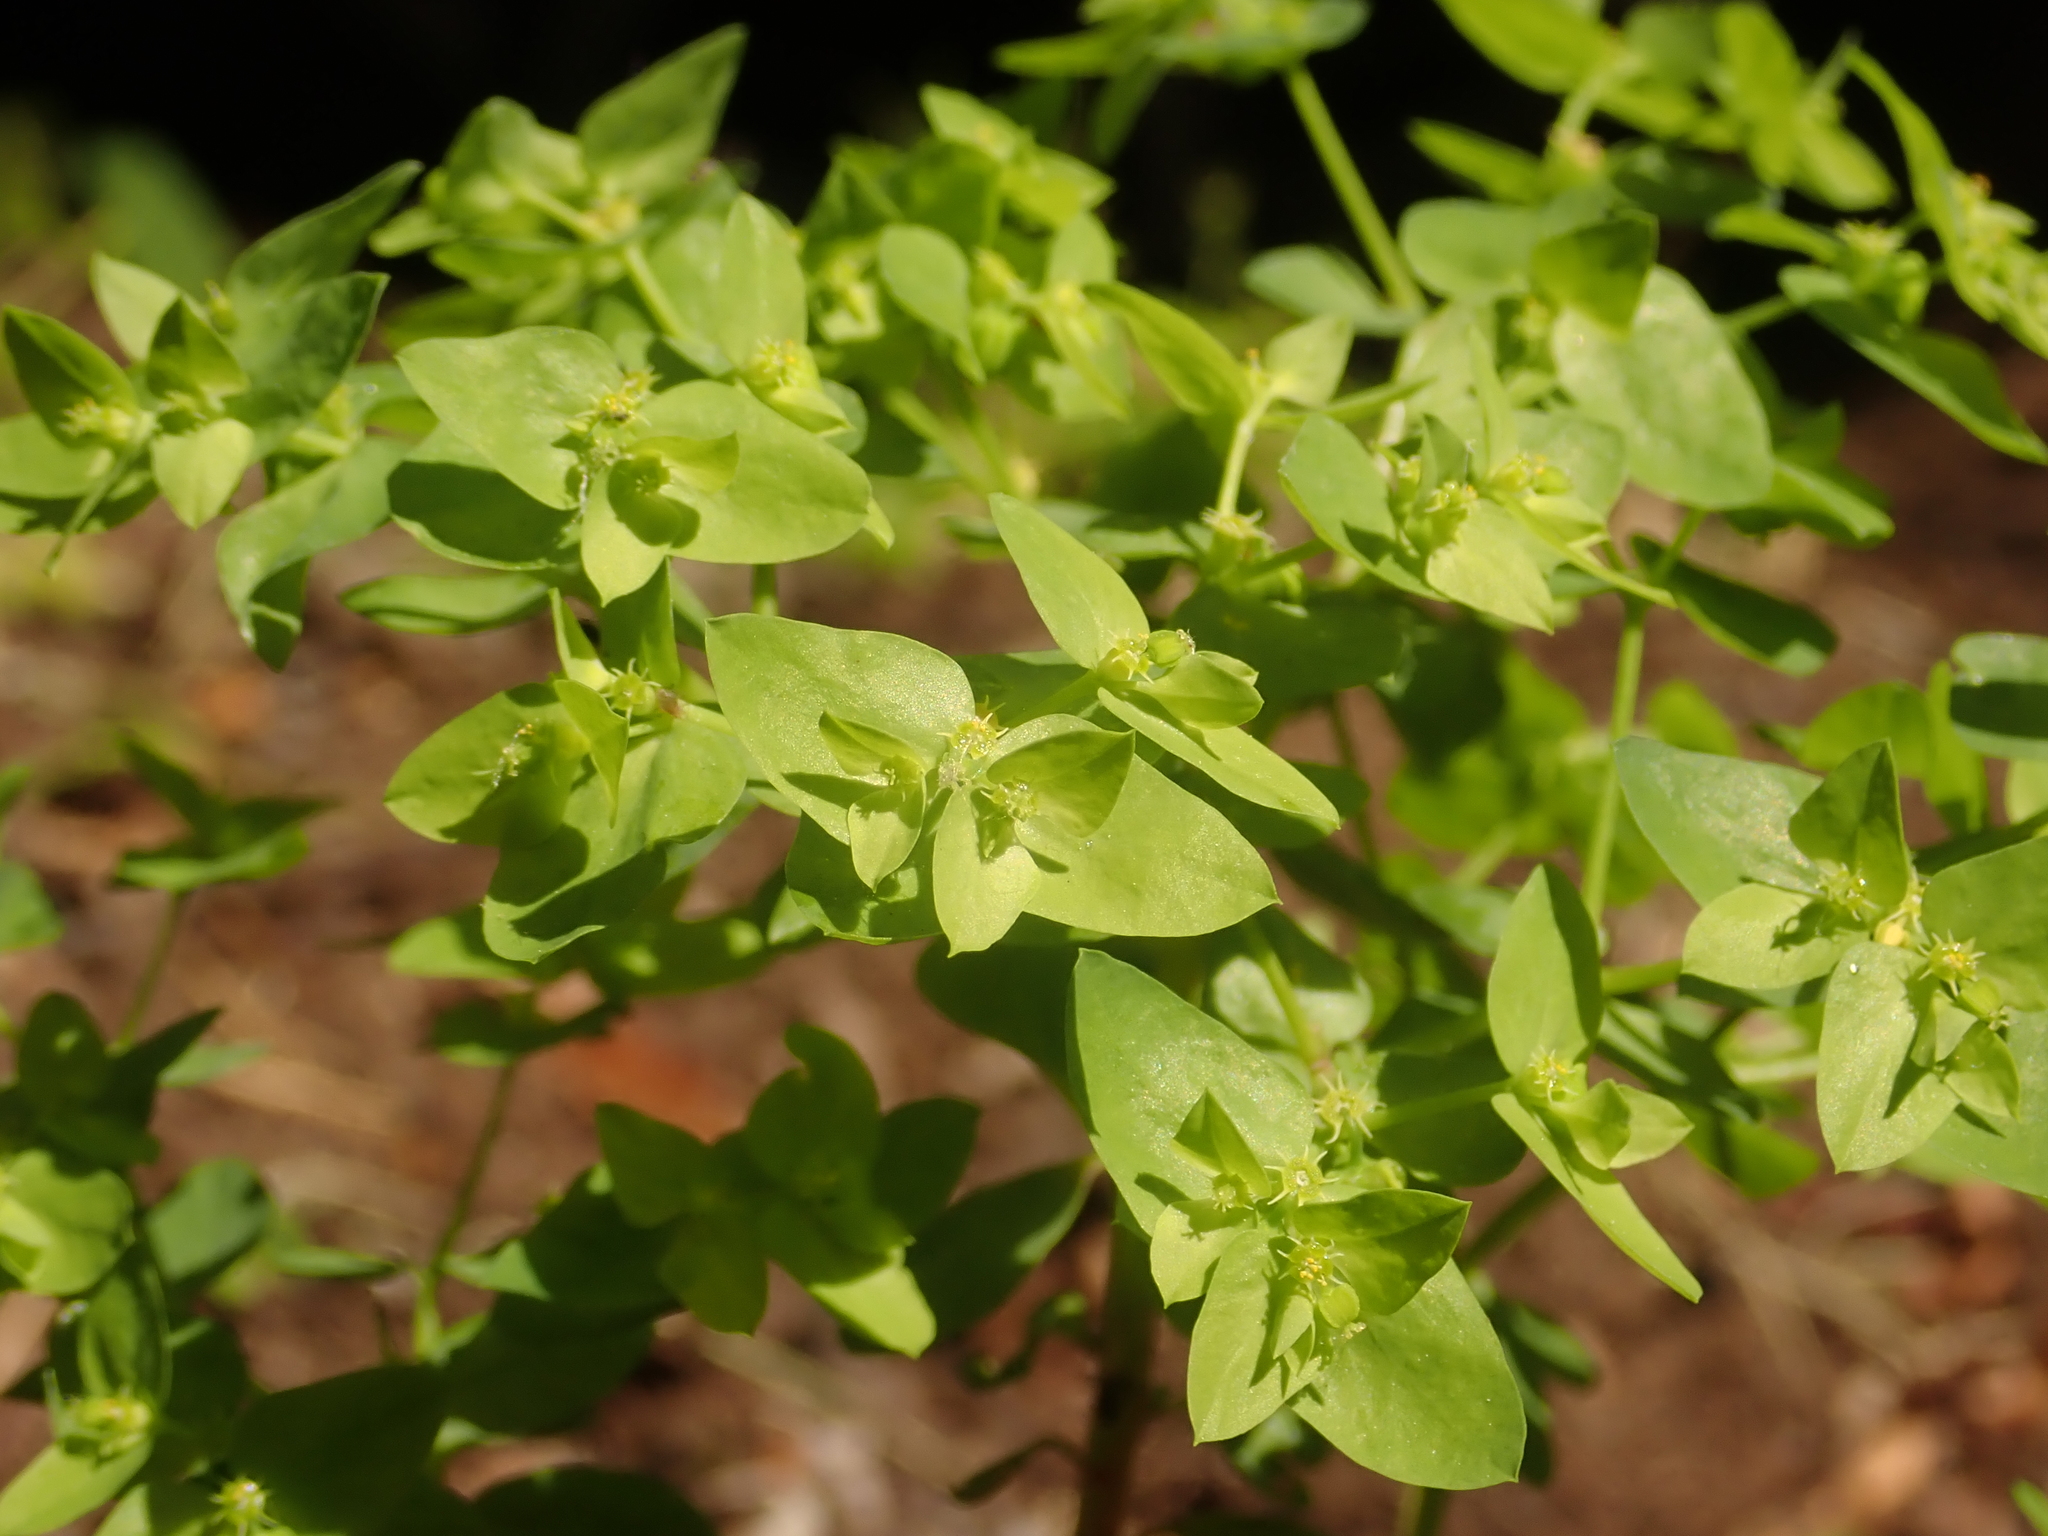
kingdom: Plantae
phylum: Tracheophyta
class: Magnoliopsida
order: Malpighiales
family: Euphorbiaceae
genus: Euphorbia
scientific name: Euphorbia peplus
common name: Petty spurge
